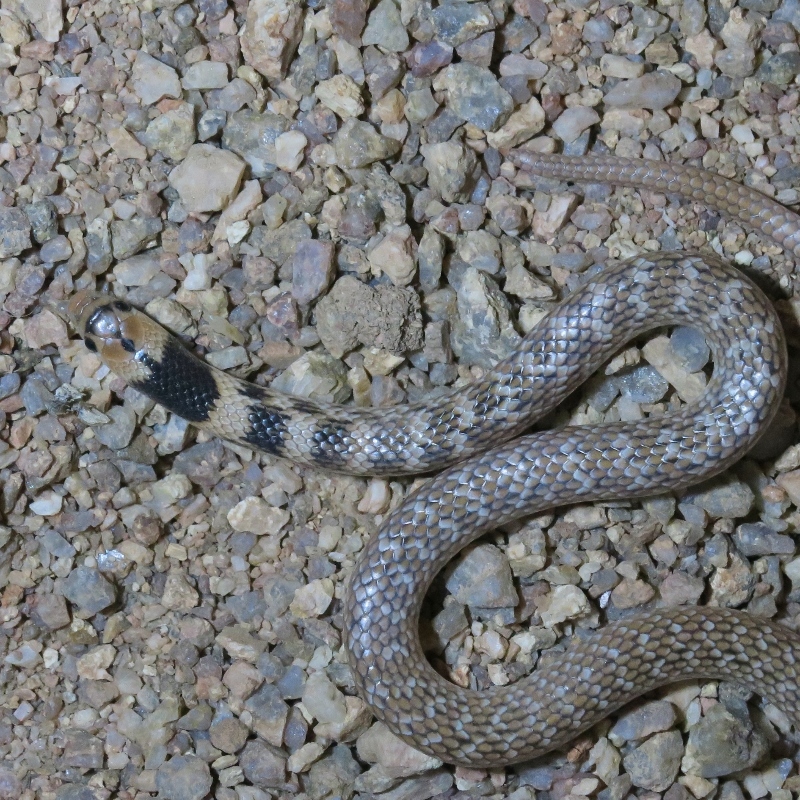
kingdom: Animalia
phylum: Chordata
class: Squamata
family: Prosymnidae
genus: Prosymna
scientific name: Prosymna frontalis
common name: Southwestern shovel-snout
